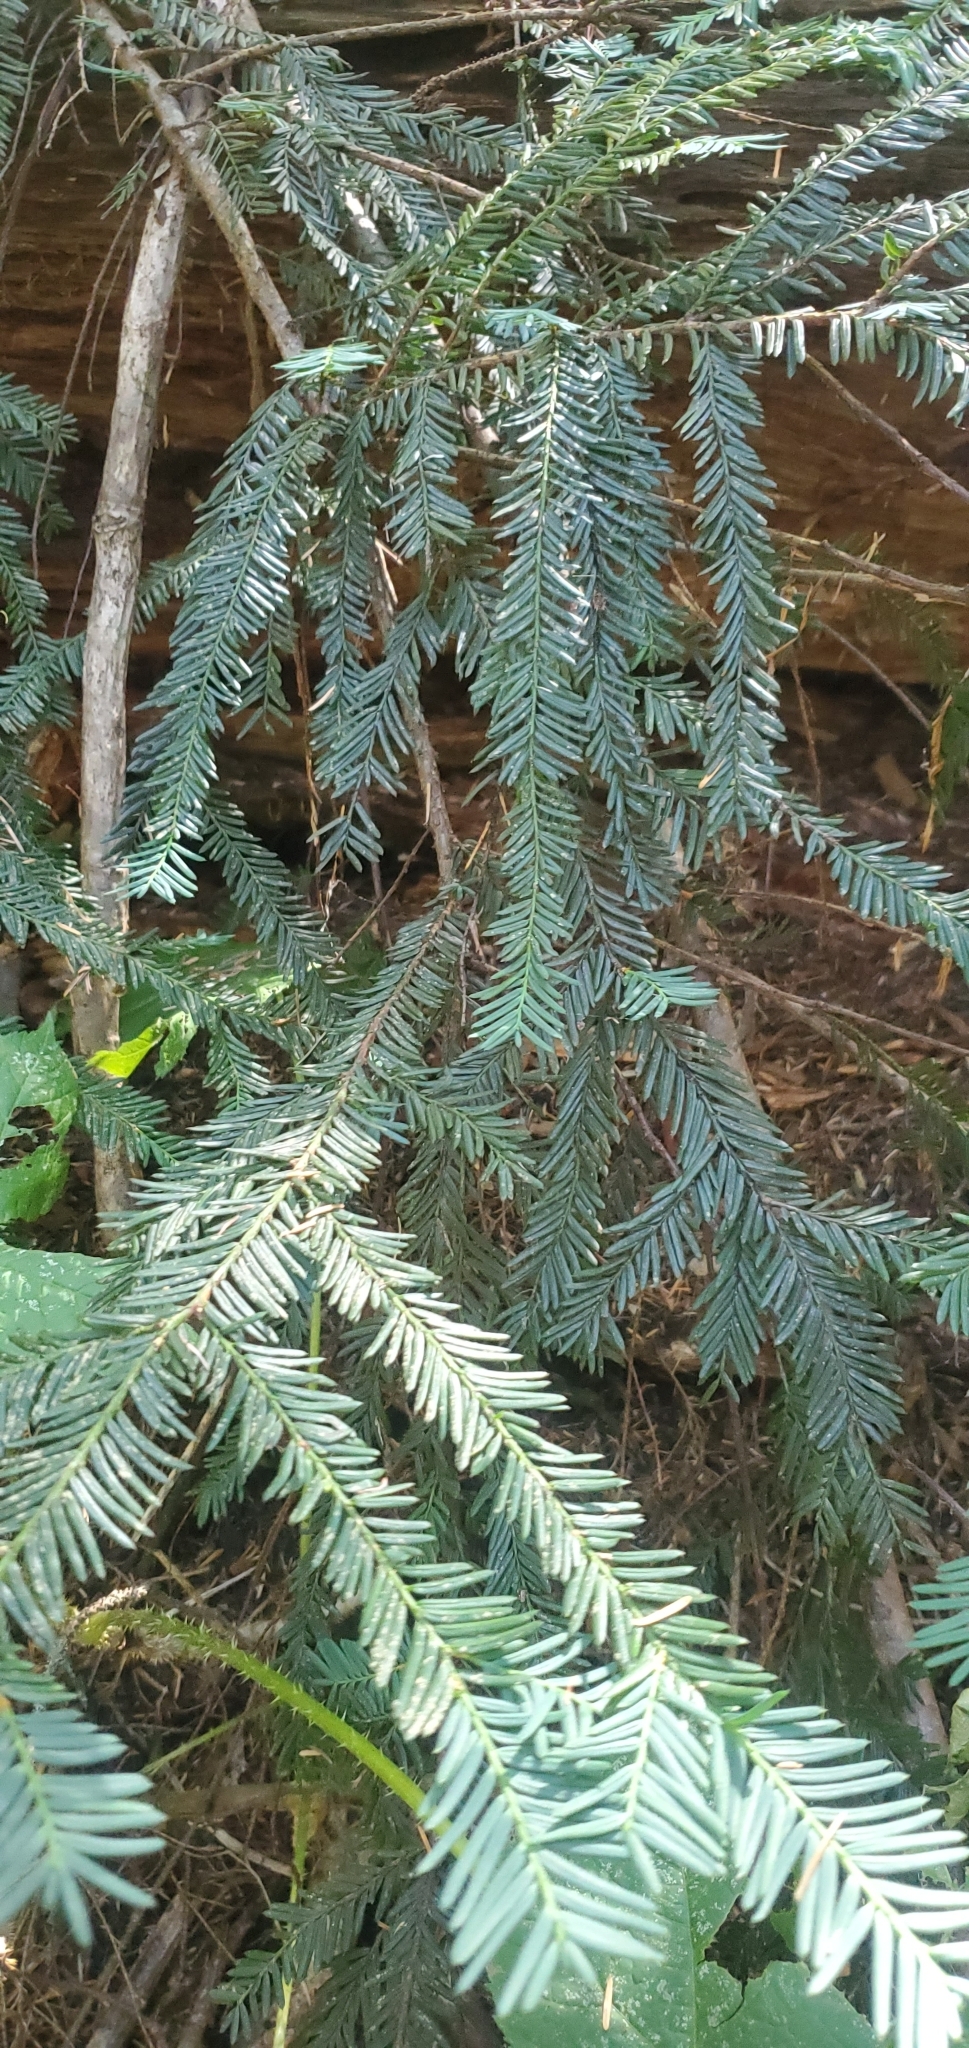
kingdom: Plantae
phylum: Tracheophyta
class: Pinopsida
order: Pinales
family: Taxaceae
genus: Taxus
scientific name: Taxus brevifolia
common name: Pacific yew
